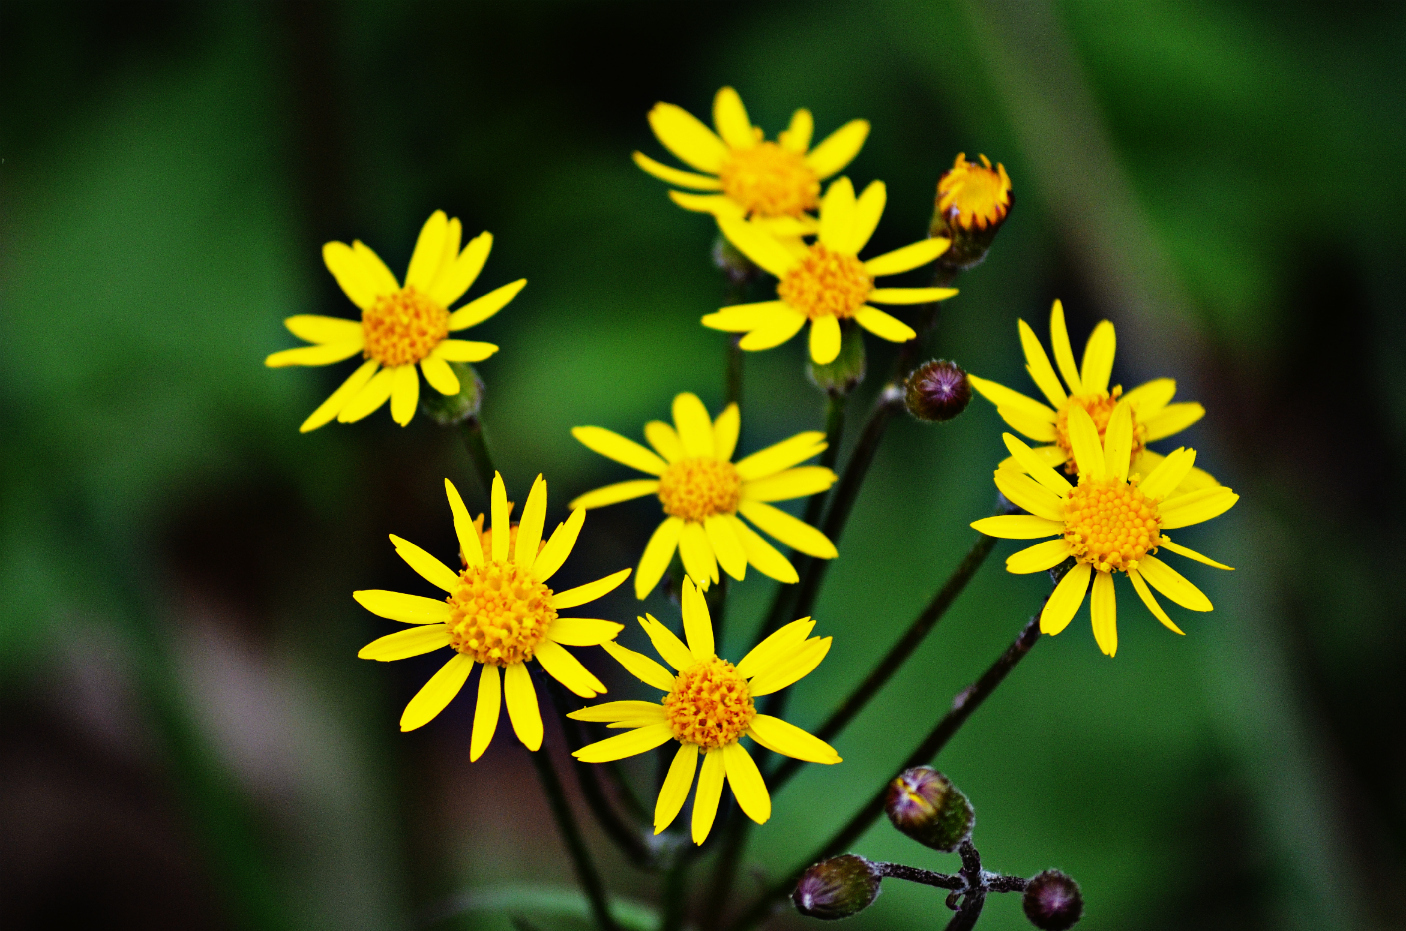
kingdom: Plantae
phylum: Tracheophyta
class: Magnoliopsida
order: Asterales
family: Asteraceae
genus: Packera
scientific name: Packera aurea
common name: Golden groundsel
